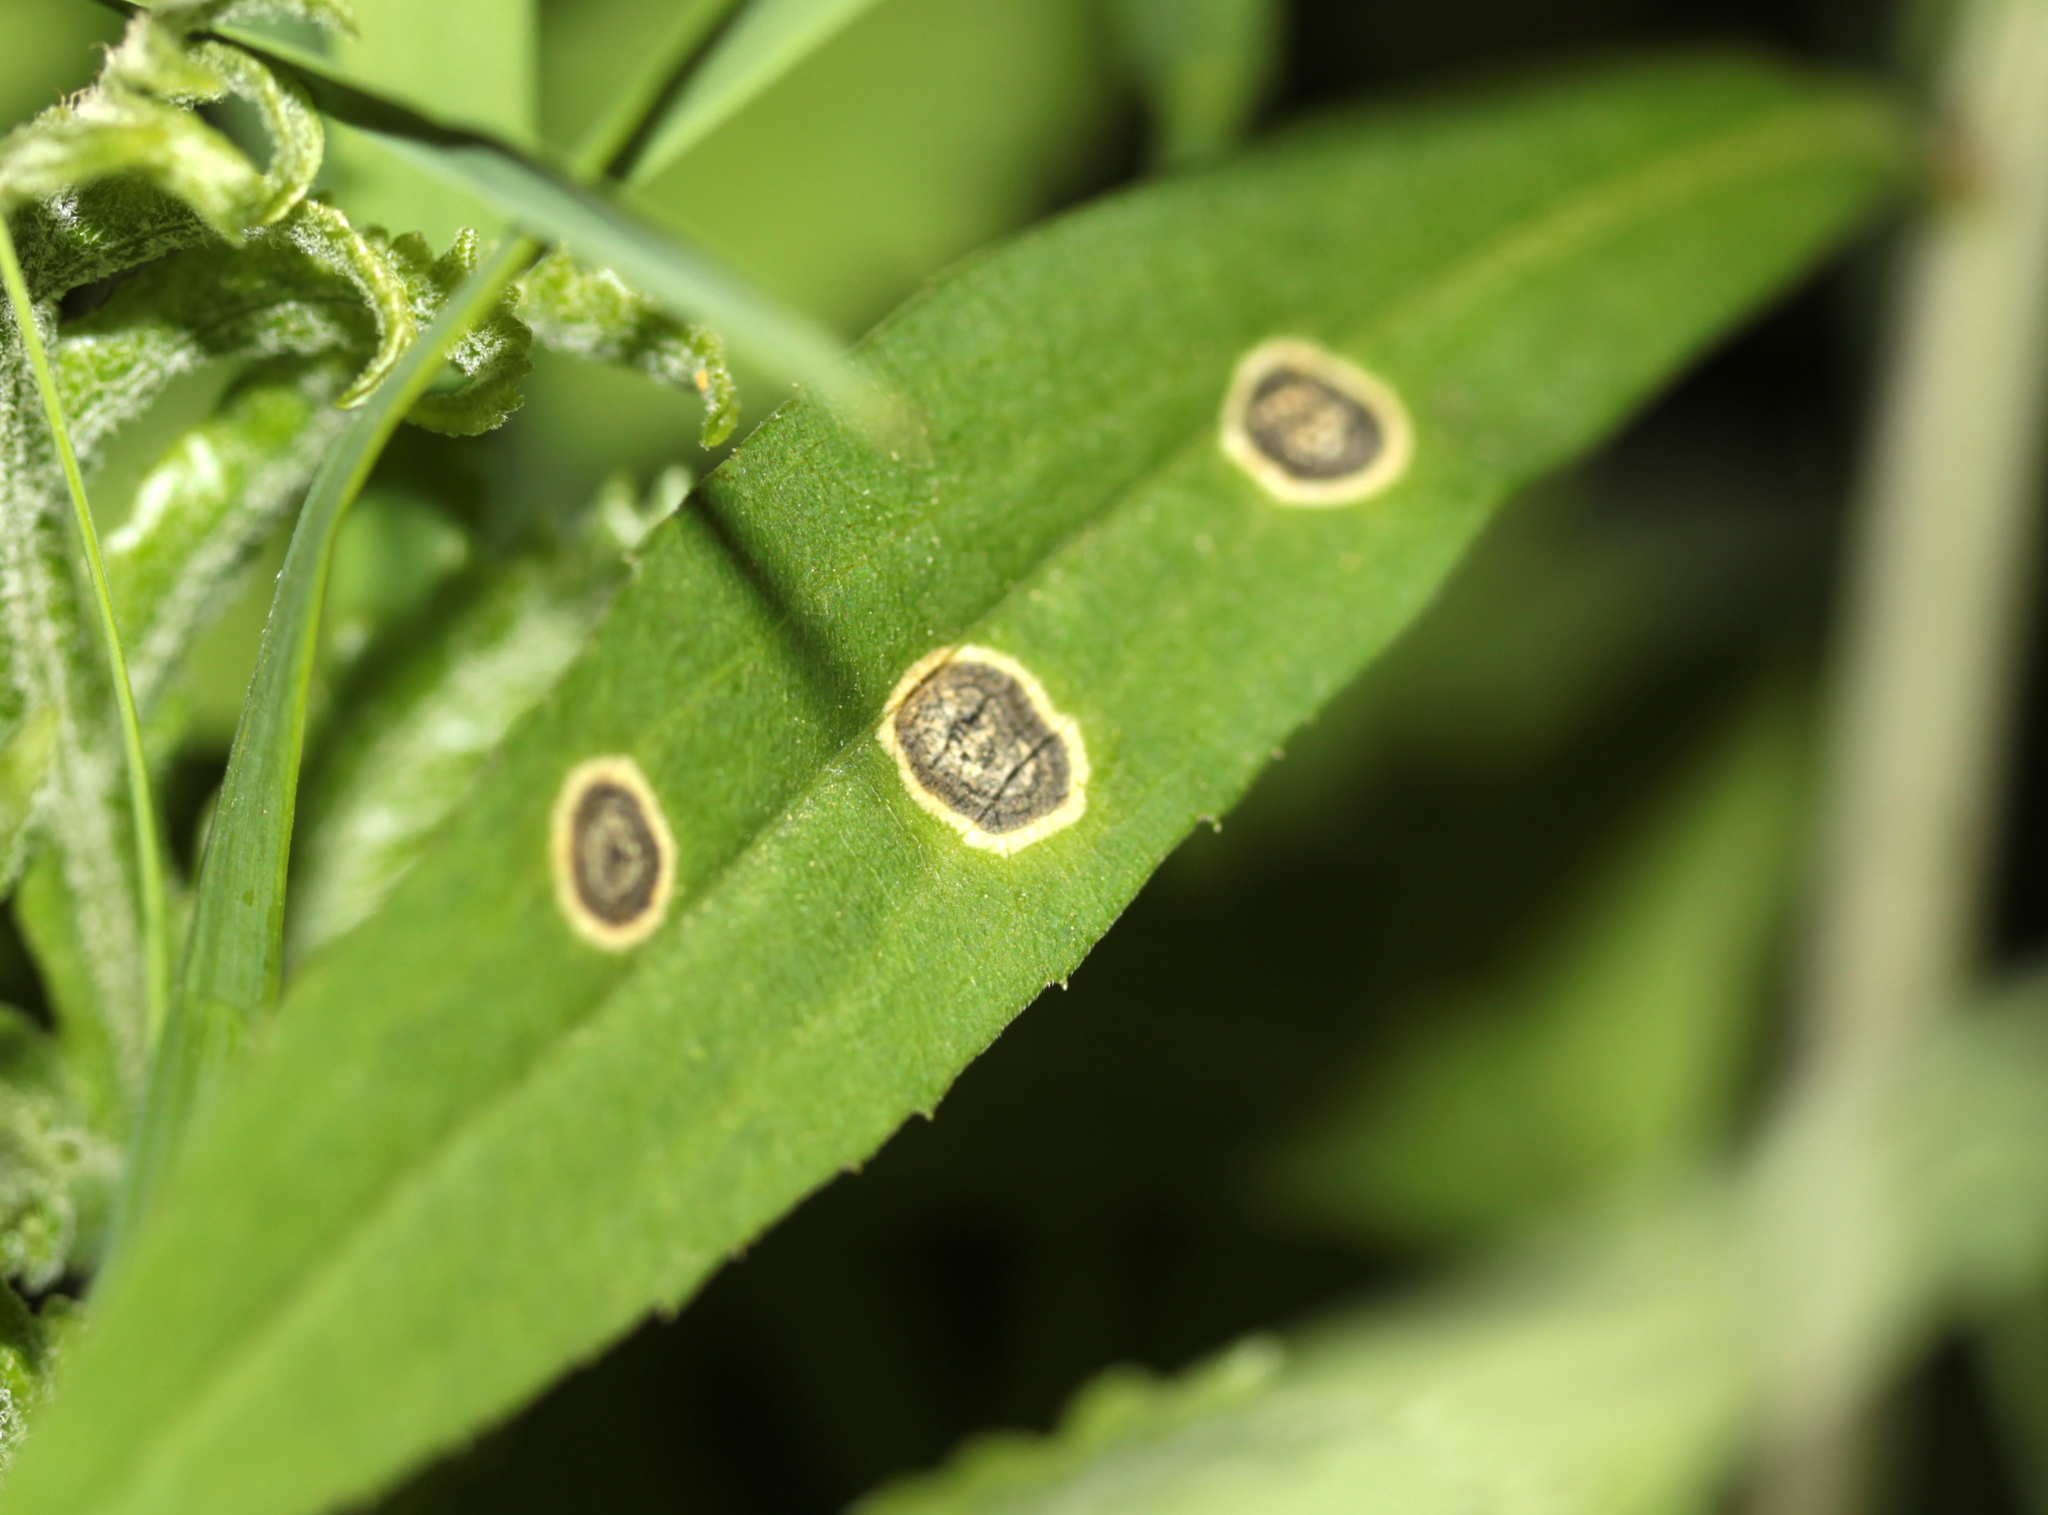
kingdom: Animalia
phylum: Arthropoda
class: Insecta
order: Diptera
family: Cecidomyiidae
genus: Asteromyia
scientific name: Asteromyia carbonifera
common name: Carbonifera goldenrod gall midge
